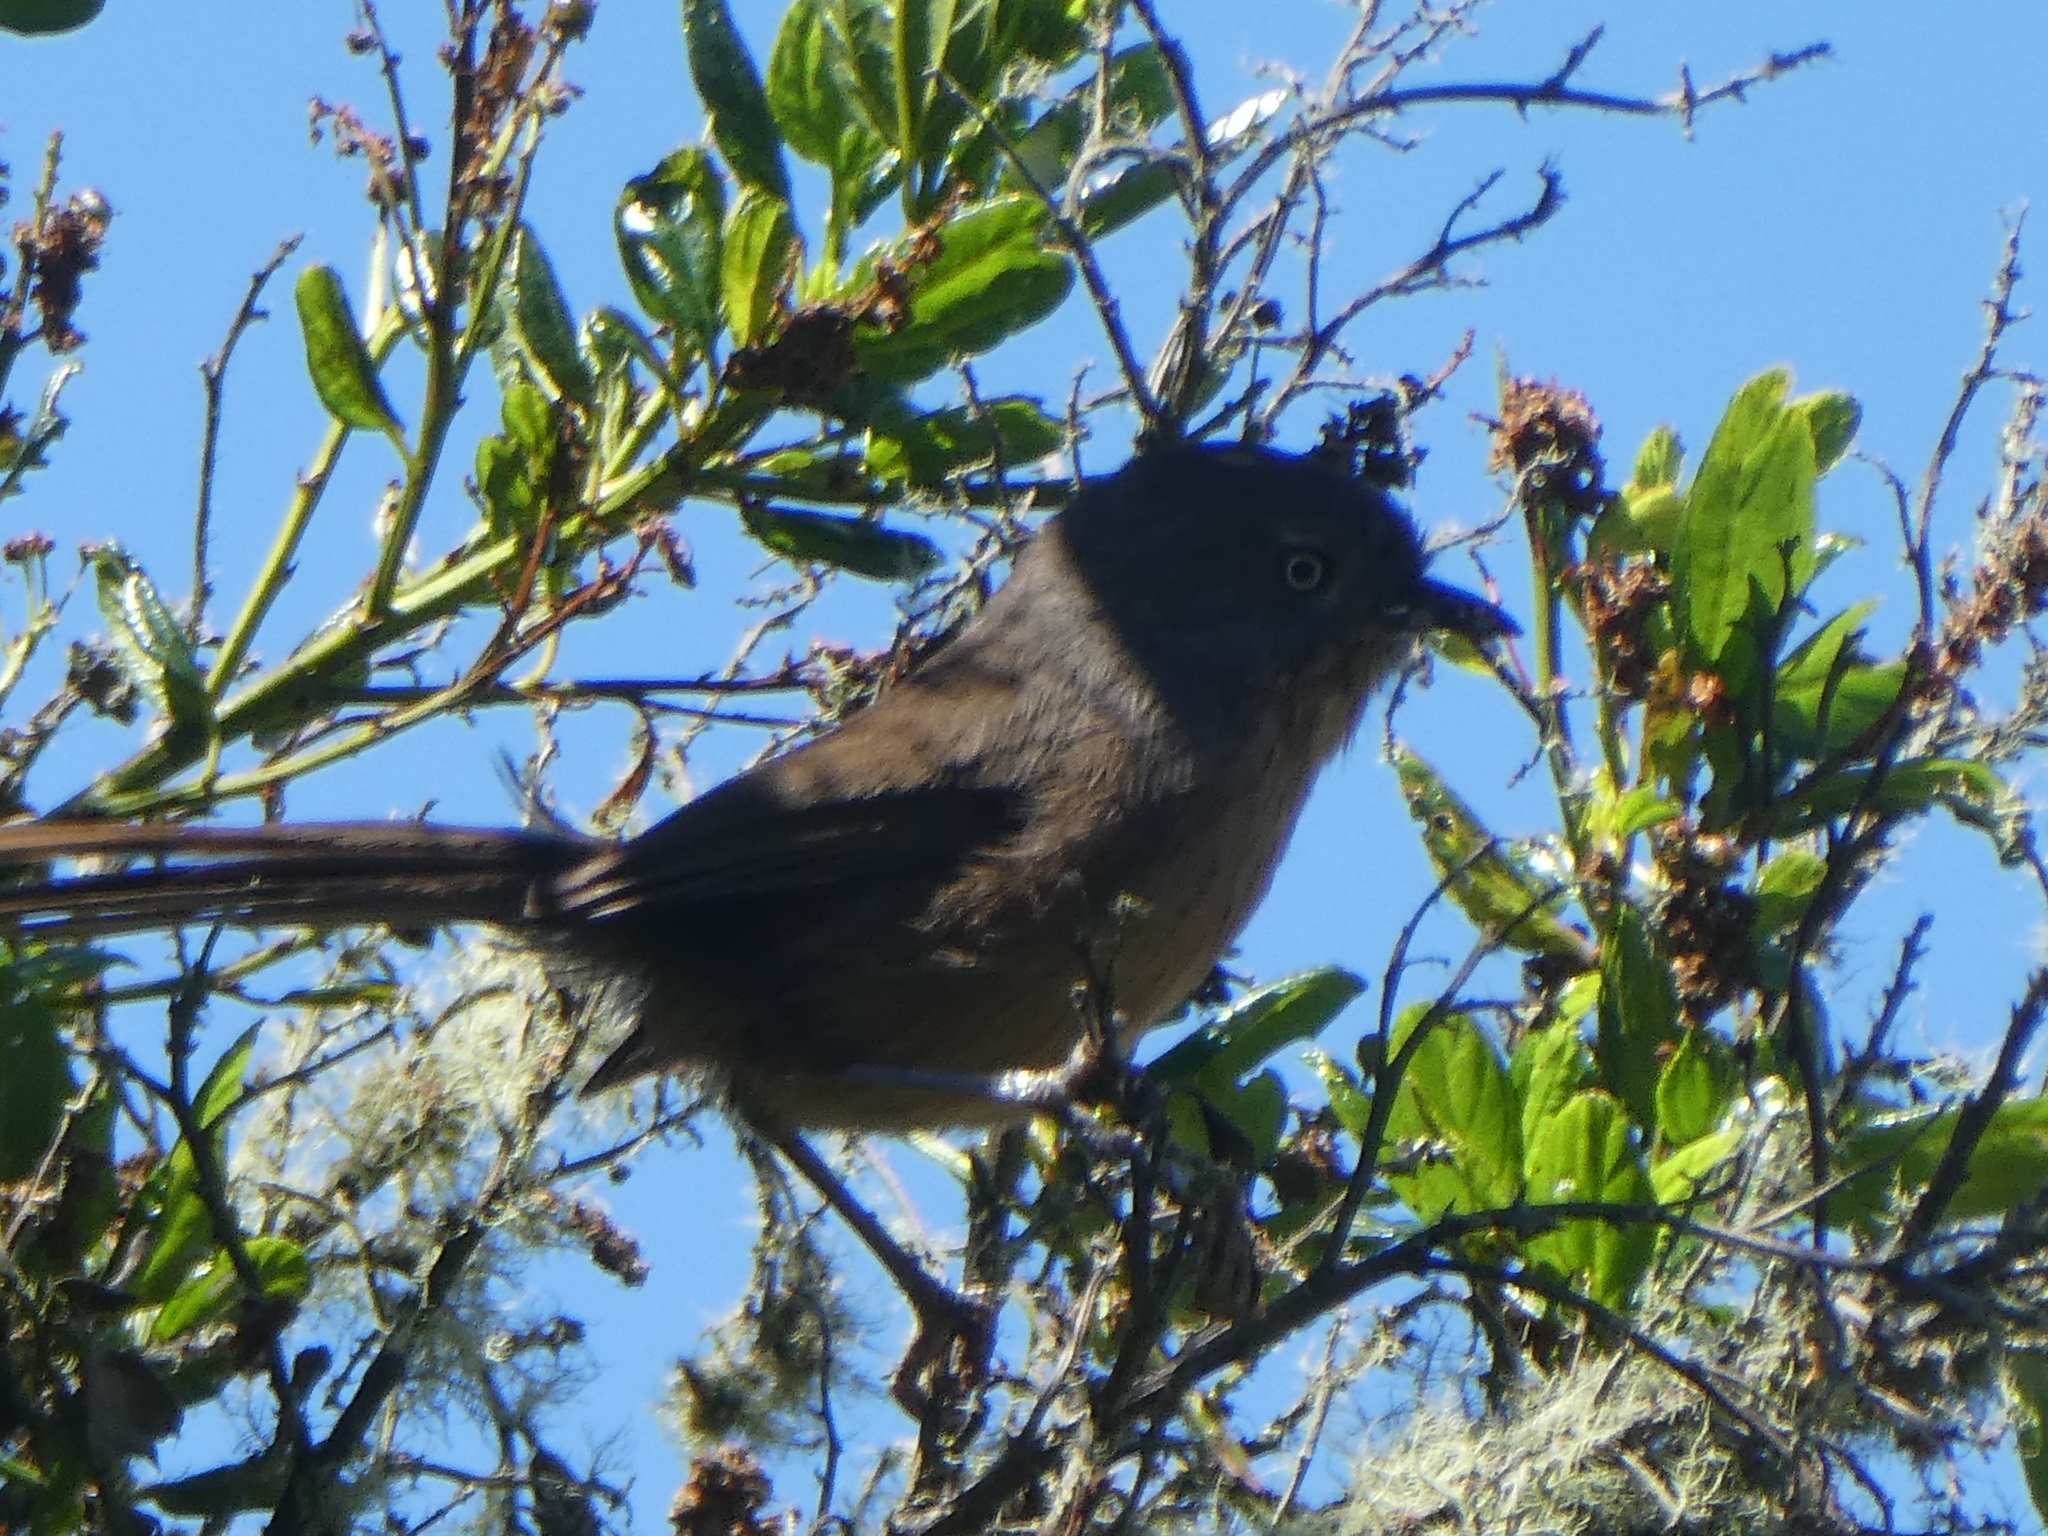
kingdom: Animalia
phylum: Chordata
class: Aves
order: Passeriformes
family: Sylviidae
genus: Chamaea
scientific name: Chamaea fasciata
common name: Wrentit
